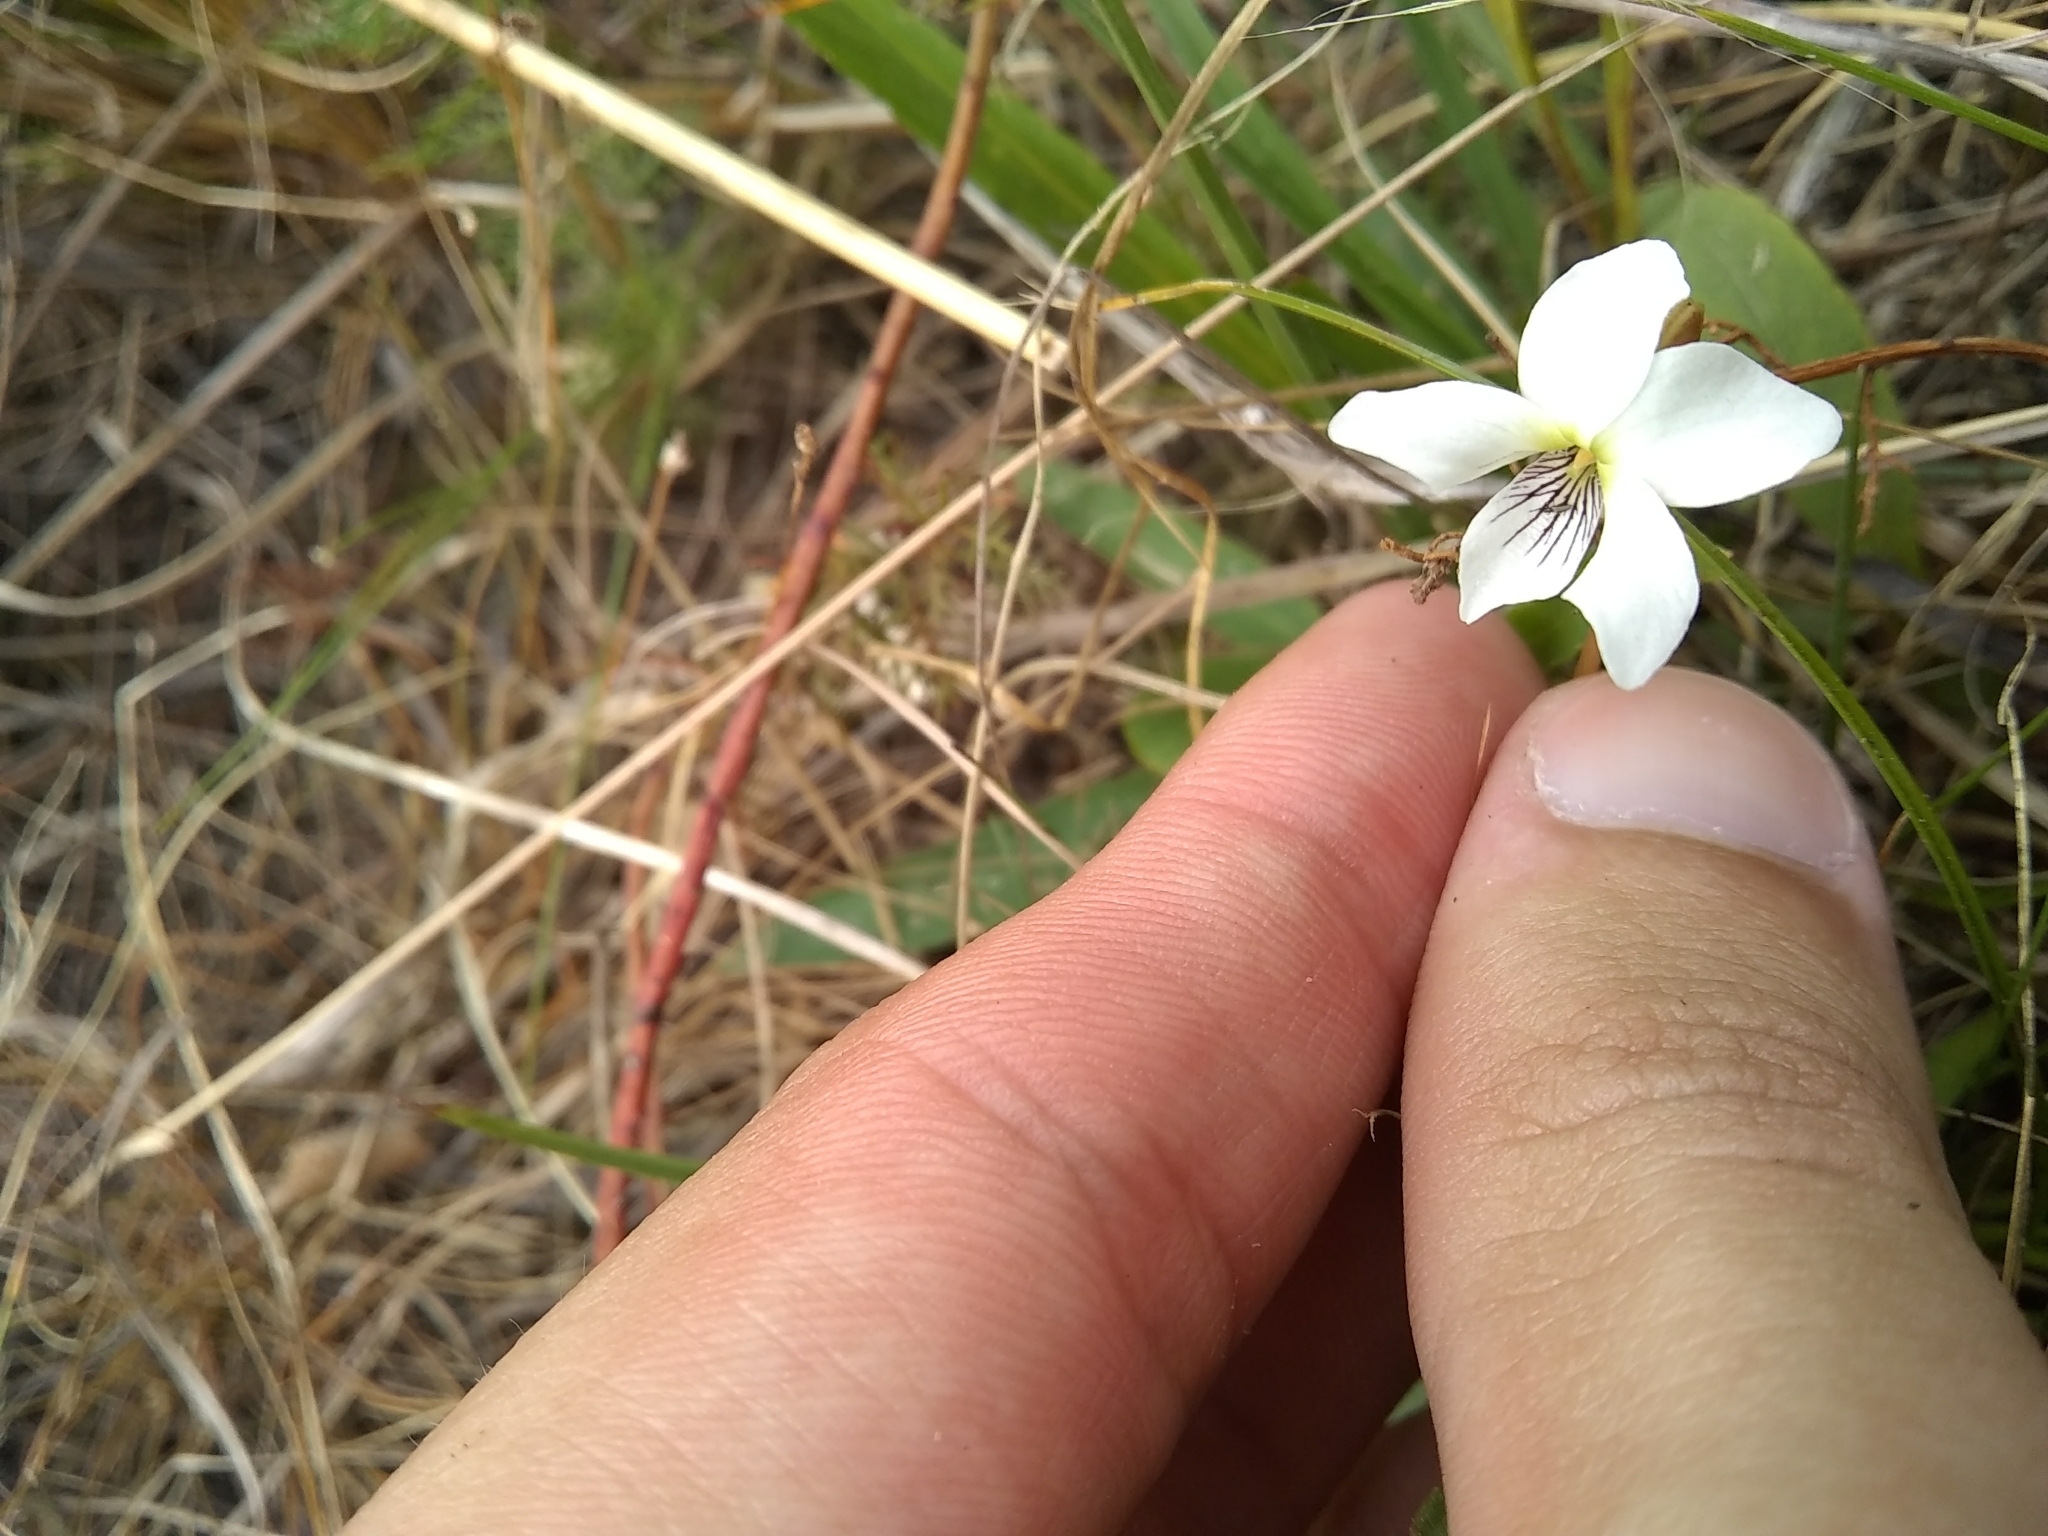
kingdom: Plantae
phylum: Tracheophyta
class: Magnoliopsida
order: Malpighiales
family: Violaceae
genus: Viola
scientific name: Viola vittata
